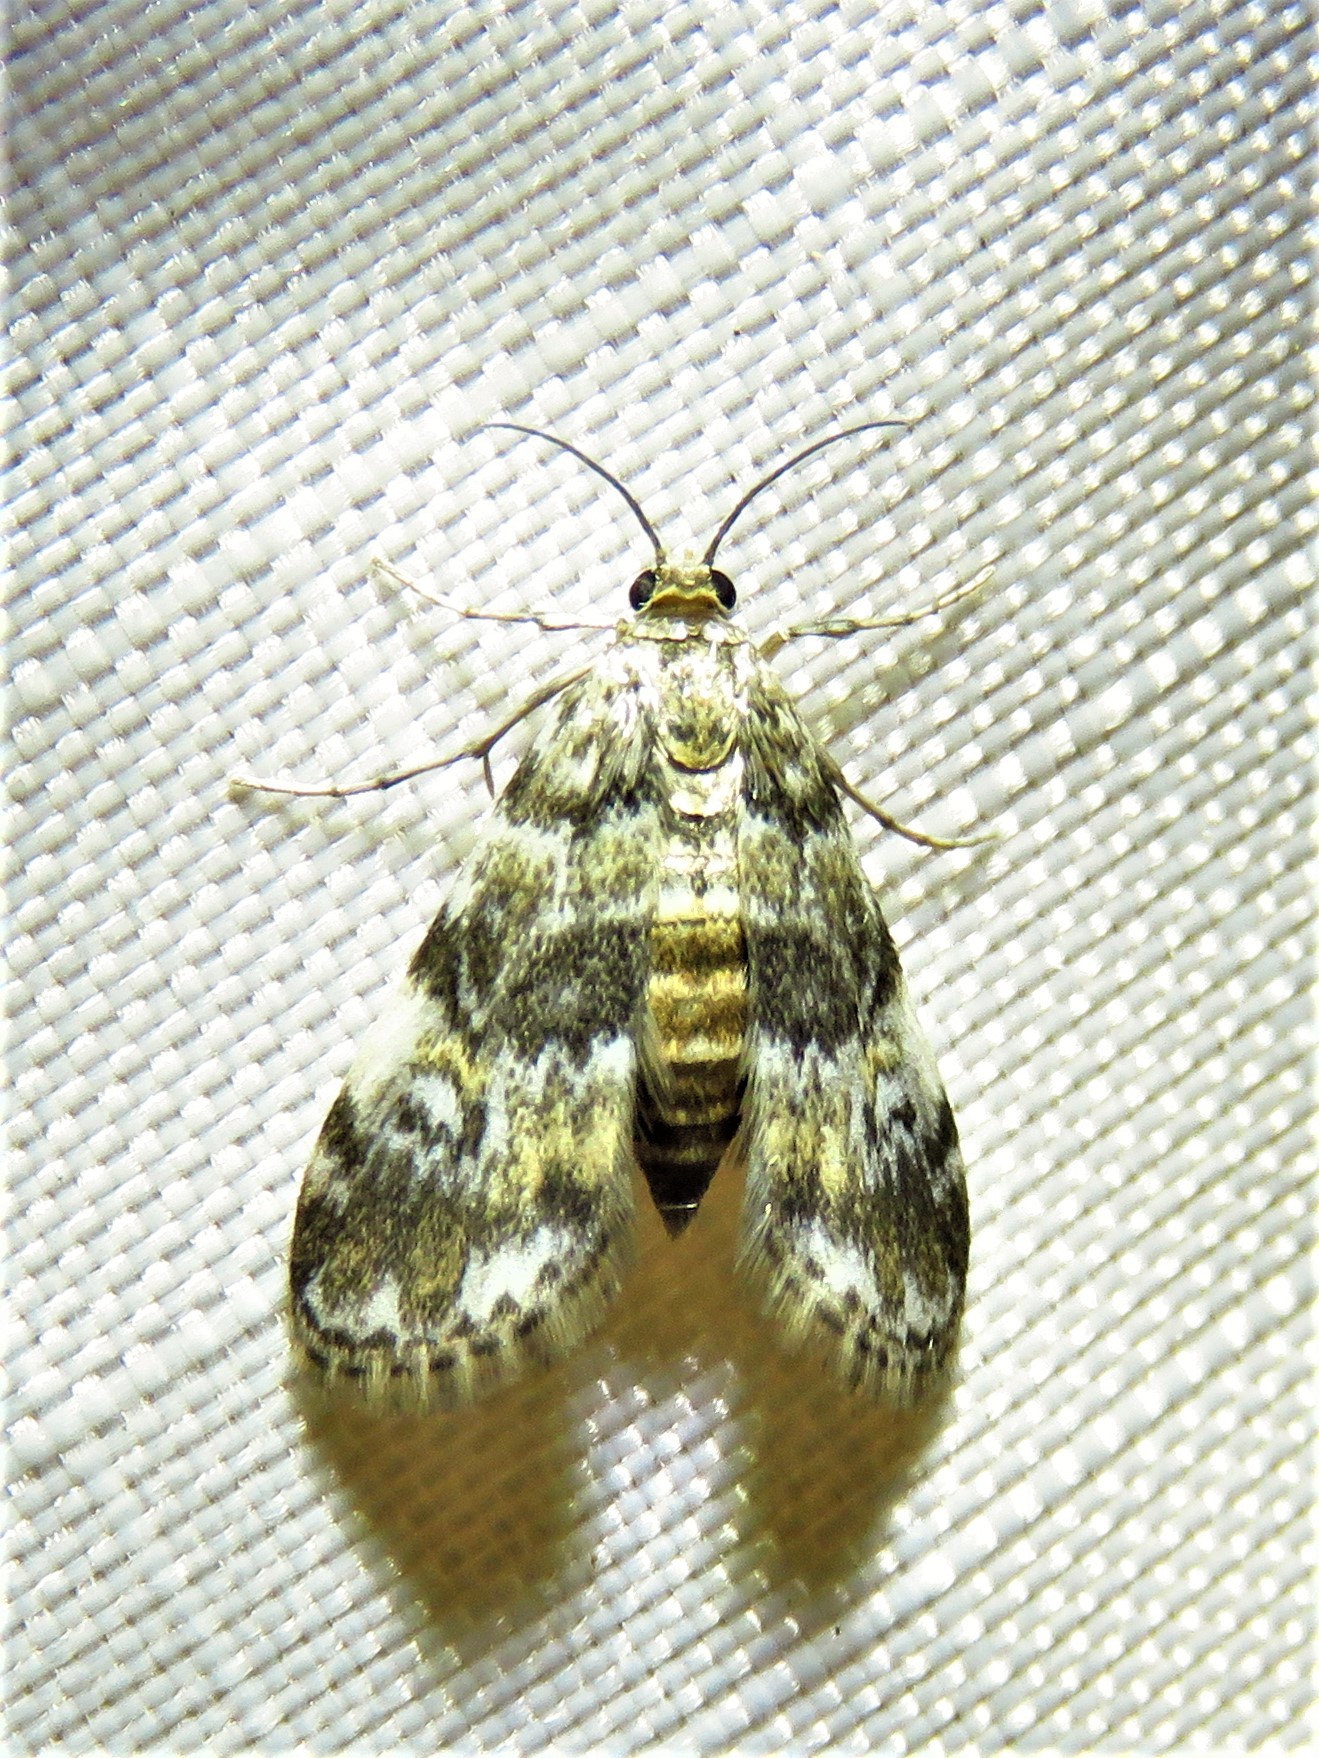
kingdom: Animalia
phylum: Arthropoda
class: Insecta
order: Lepidoptera
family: Crambidae
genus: Elophila
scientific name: Elophila obliteralis
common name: Waterlily leafcutter moth
